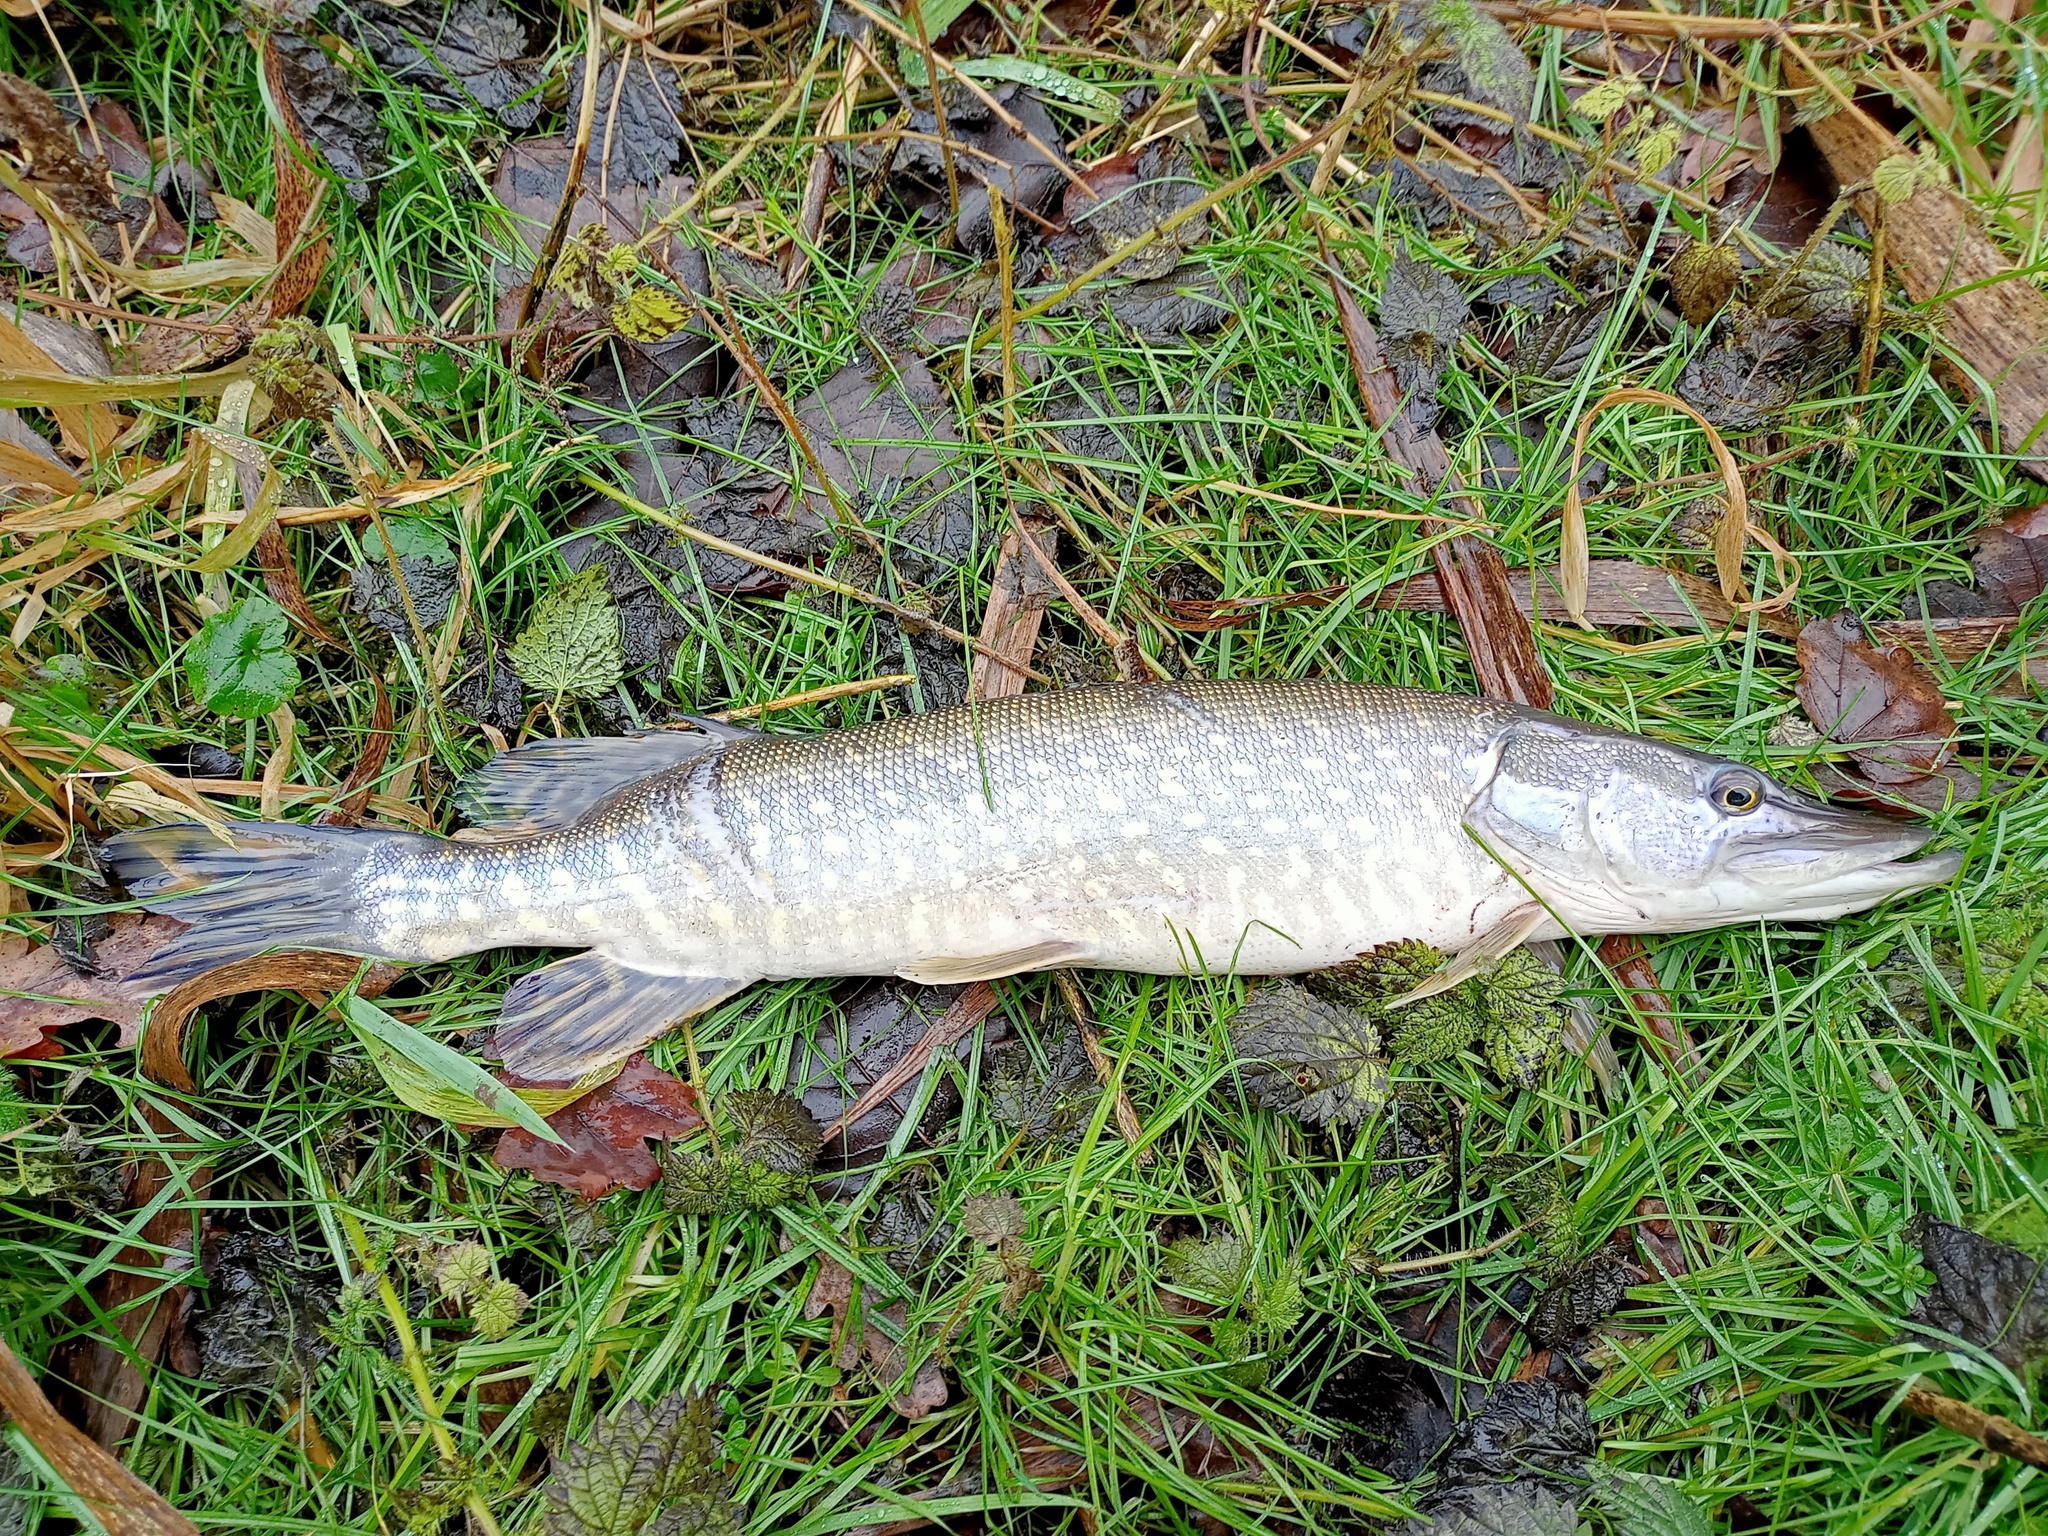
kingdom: Animalia
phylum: Chordata
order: Esociformes
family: Esocidae
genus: Esox
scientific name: Esox lucius
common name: Northern pike
